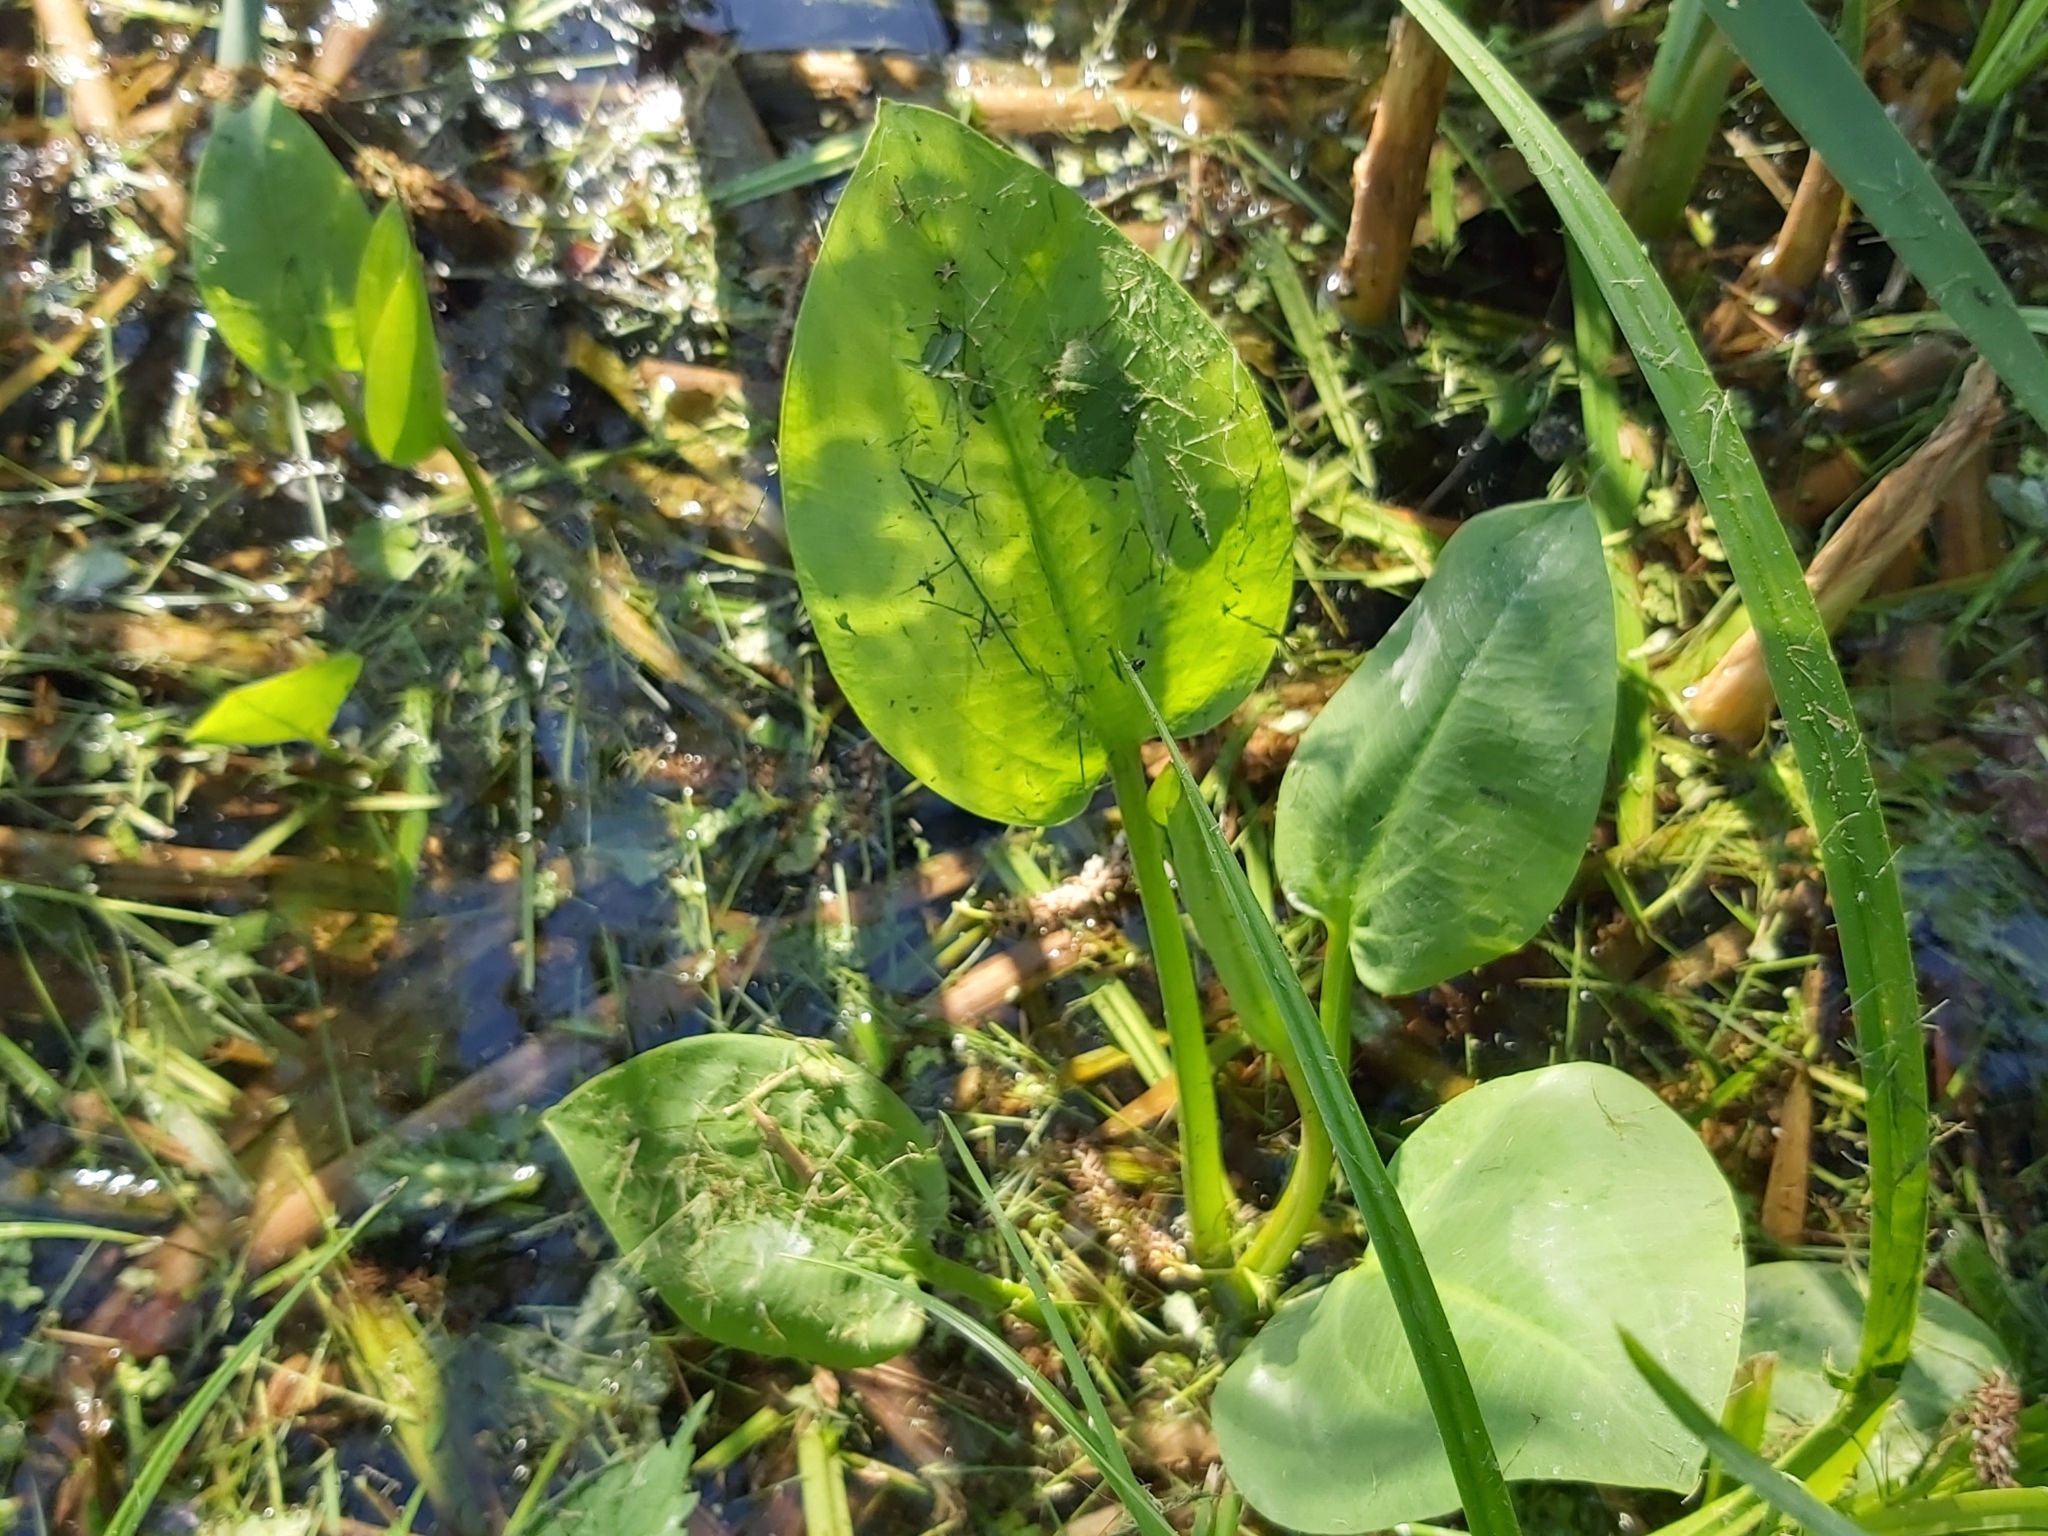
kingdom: Plantae
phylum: Tracheophyta
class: Liliopsida
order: Alismatales
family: Alismataceae
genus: Alisma
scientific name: Alisma plantago-aquatica
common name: Water-plantain
